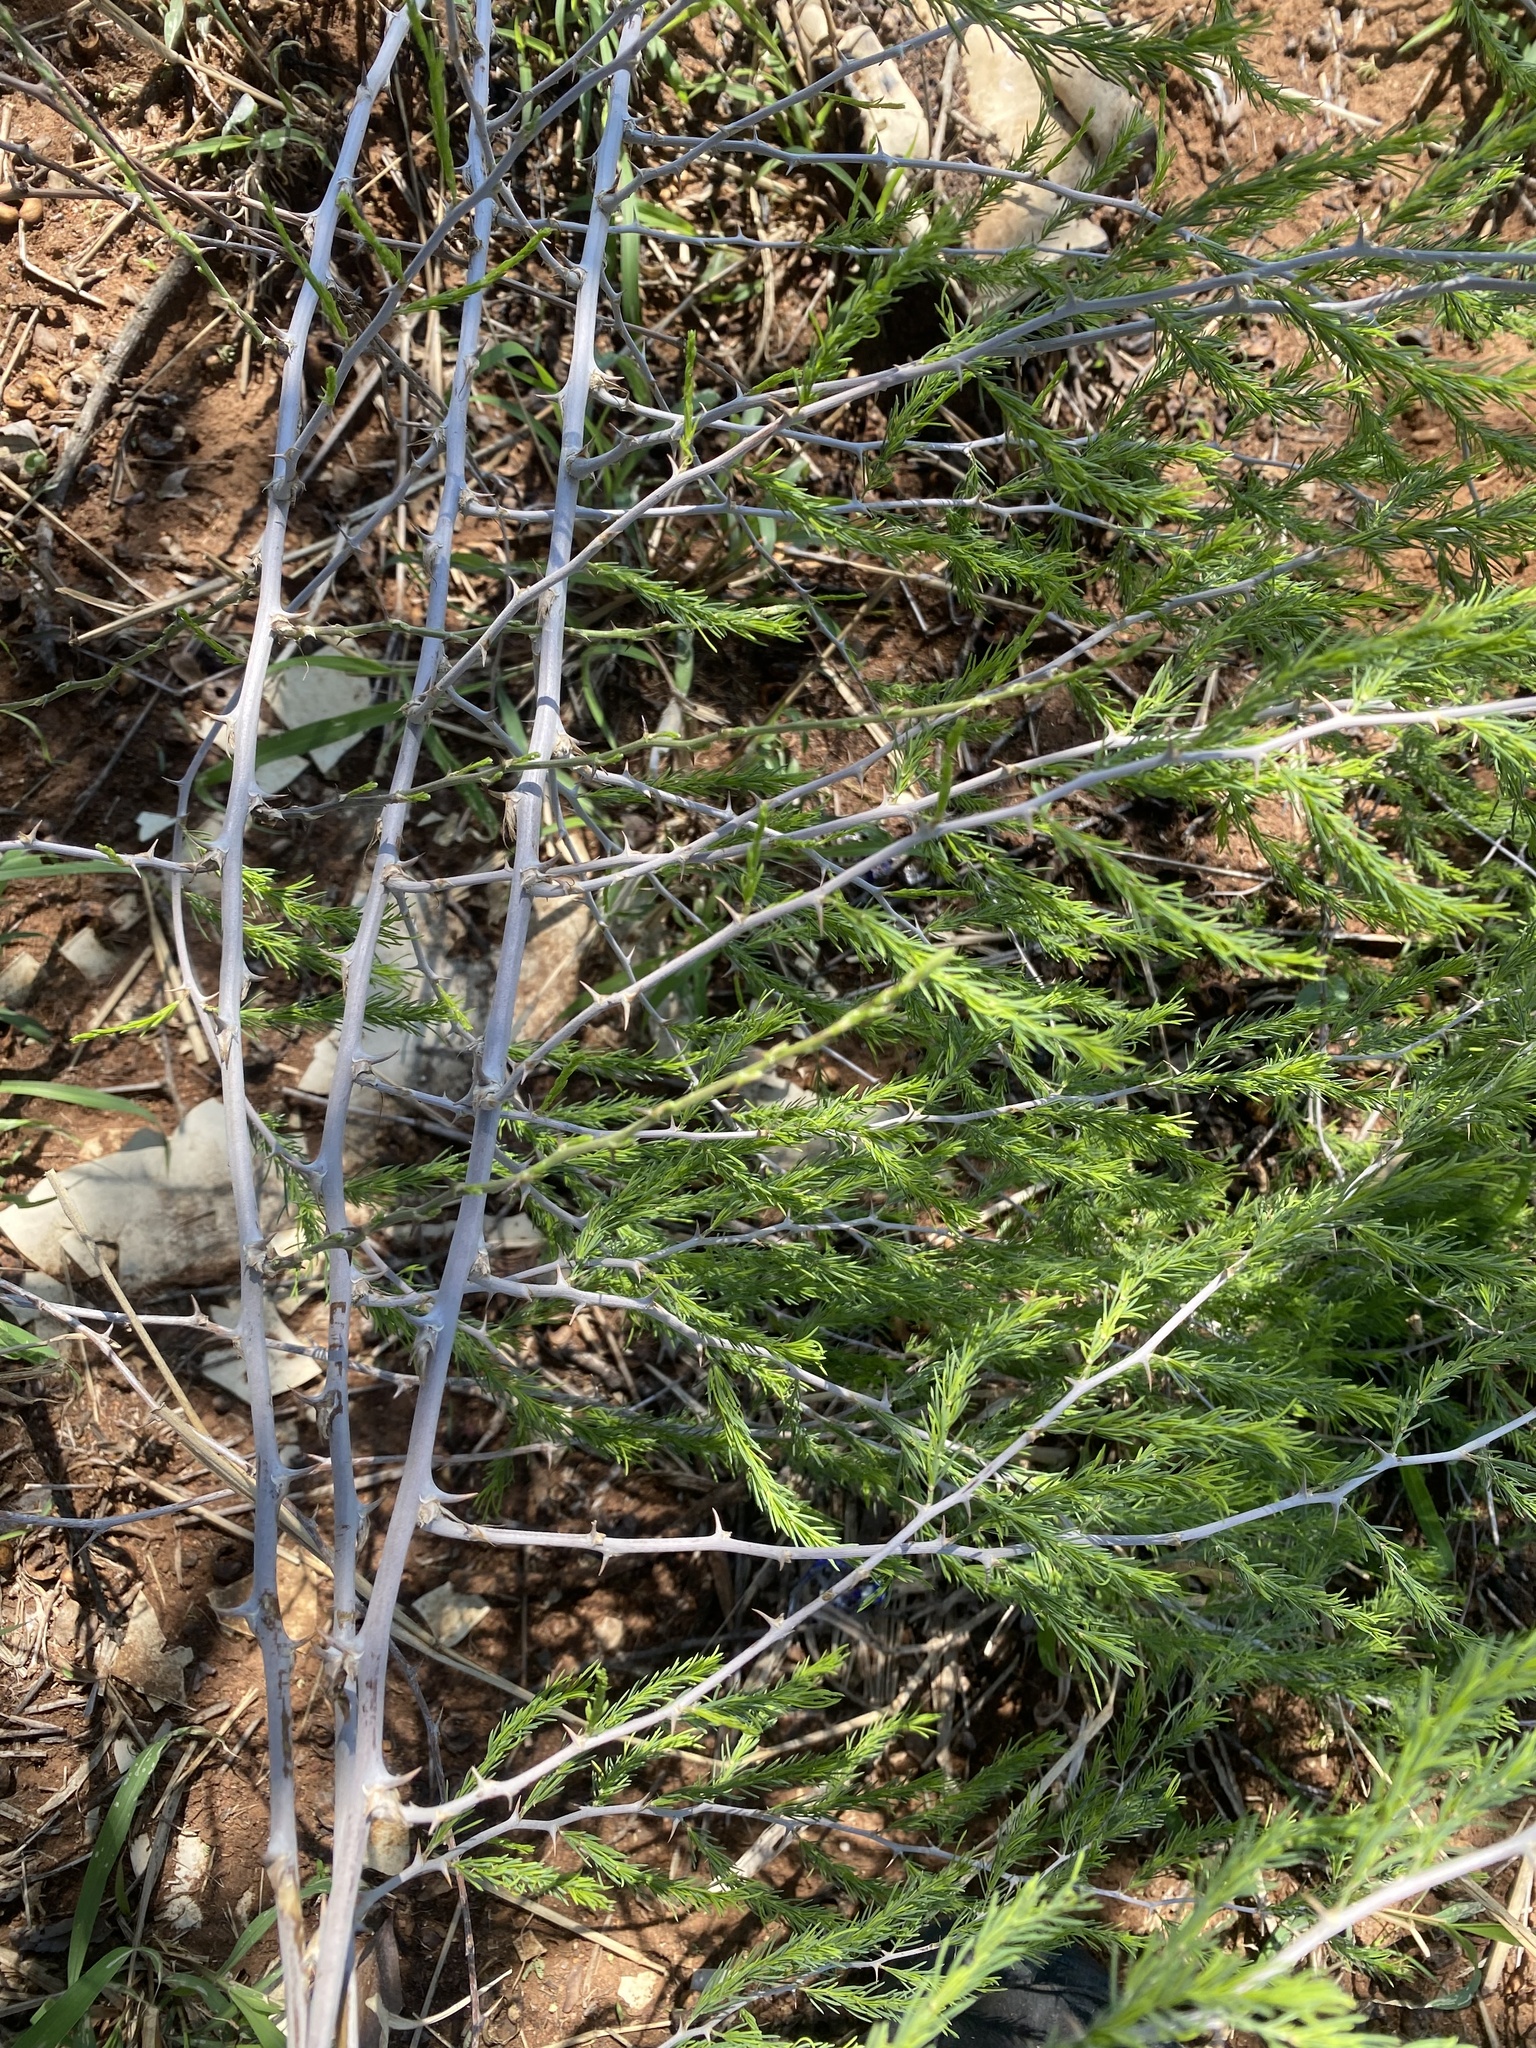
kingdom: Plantae
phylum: Tracheophyta
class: Liliopsida
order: Asparagales
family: Asparagaceae
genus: Asparagus
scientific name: Asparagus nelsii
